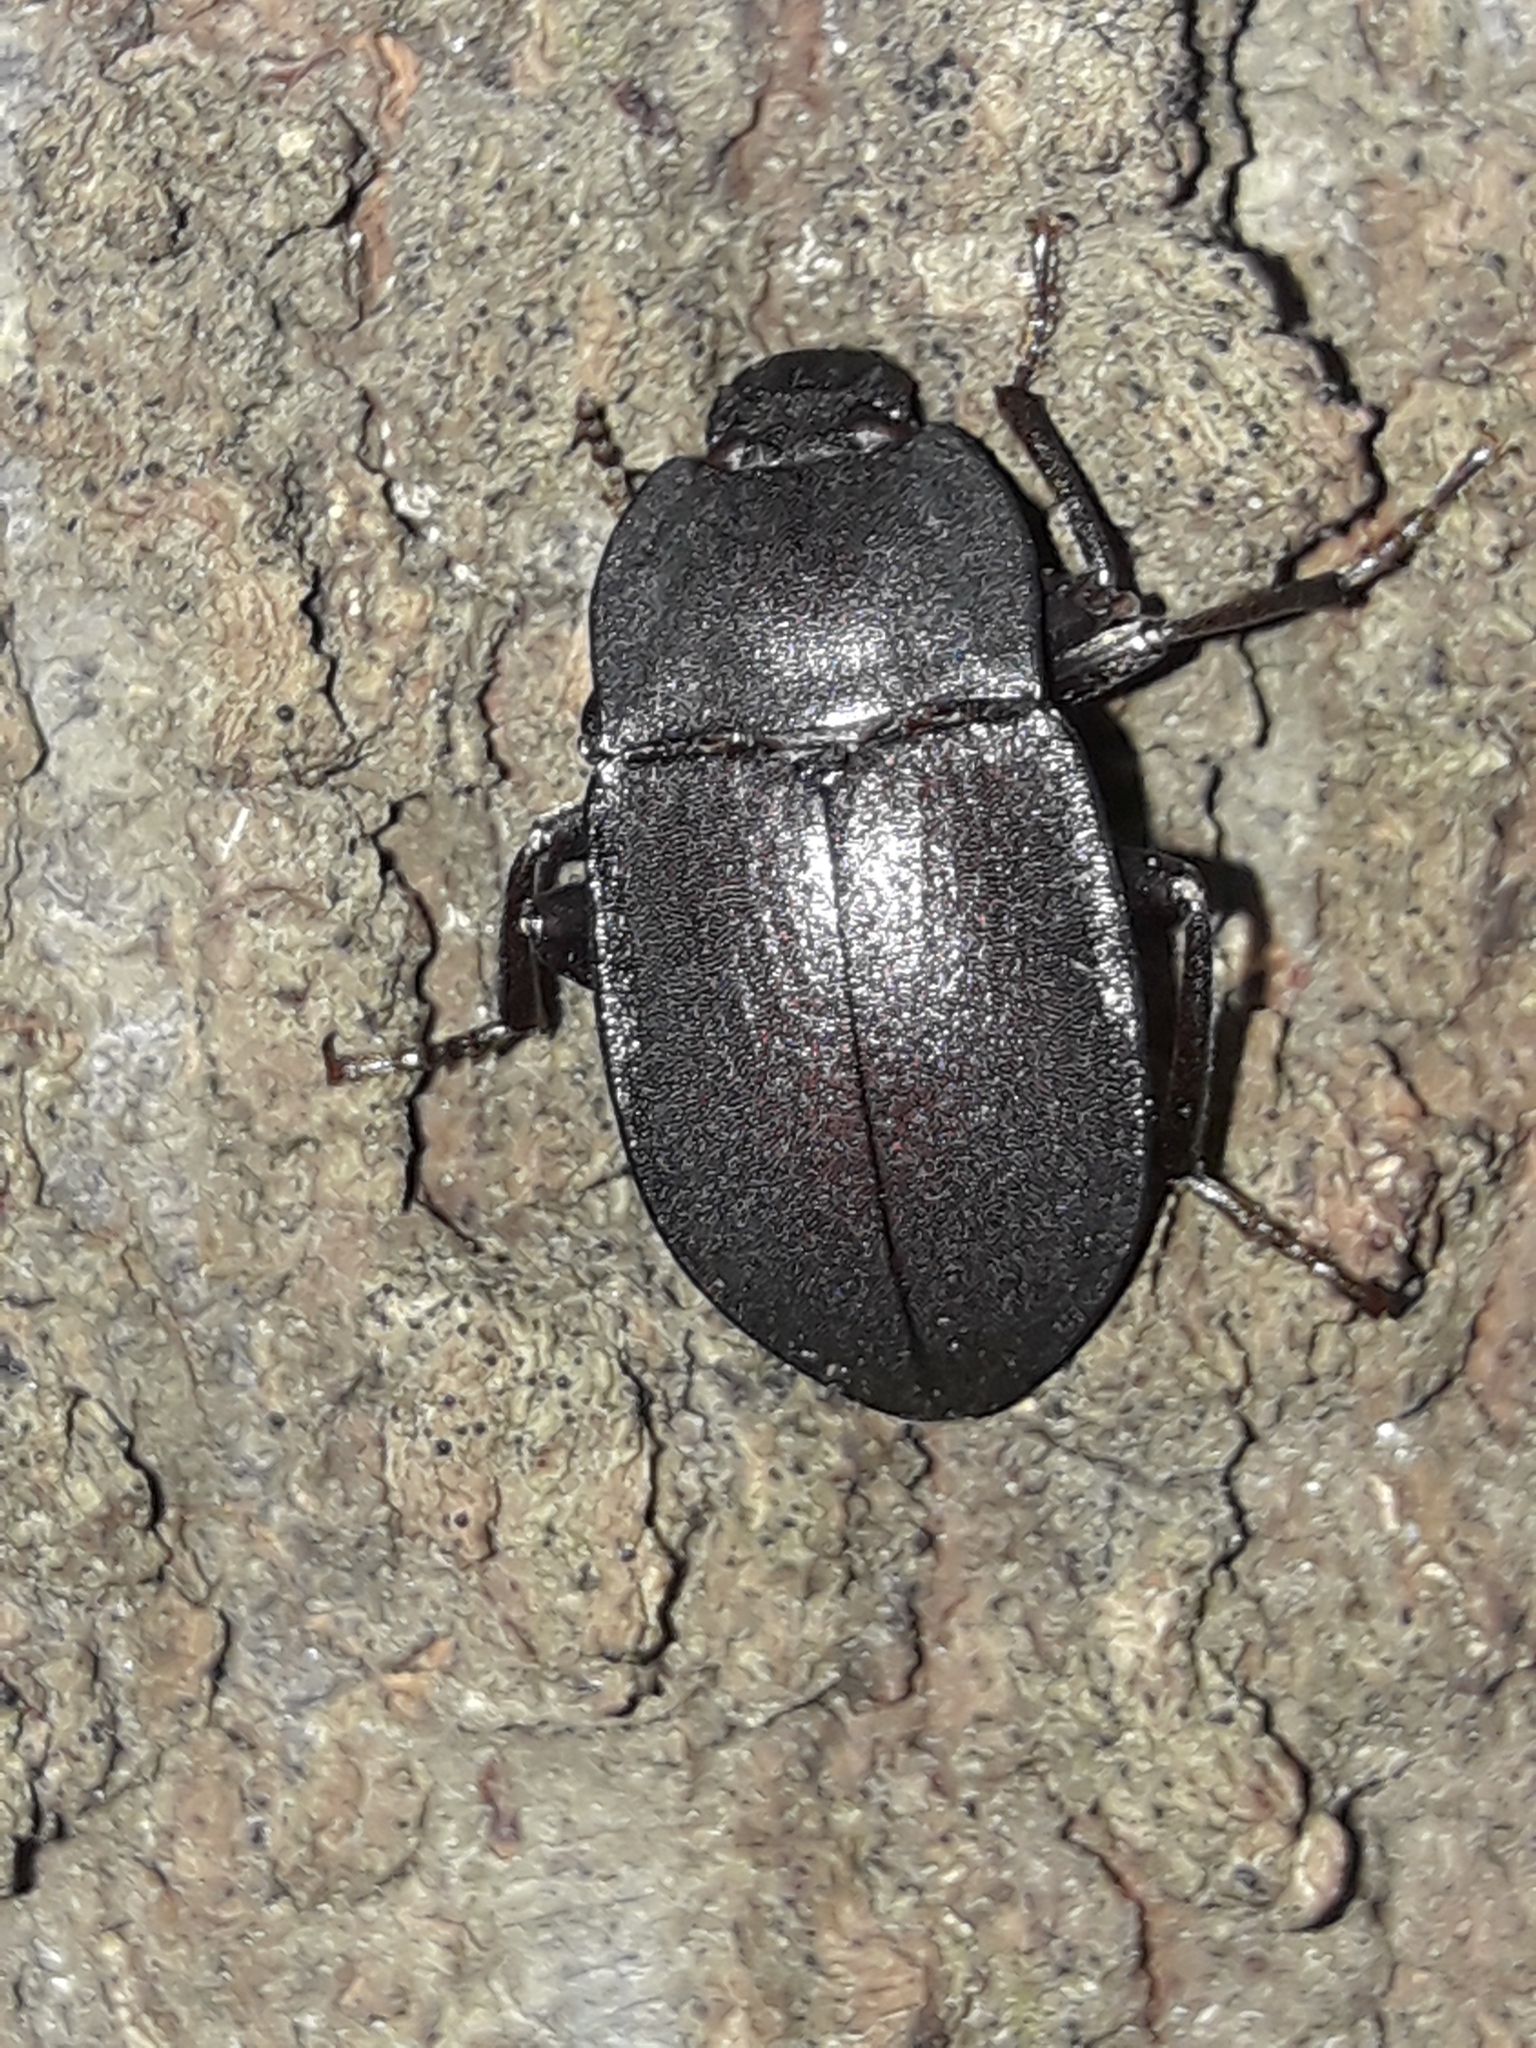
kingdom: Animalia
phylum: Arthropoda
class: Insecta
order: Coleoptera
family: Tenebrionidae
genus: Mimopeus
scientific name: Mimopeus
